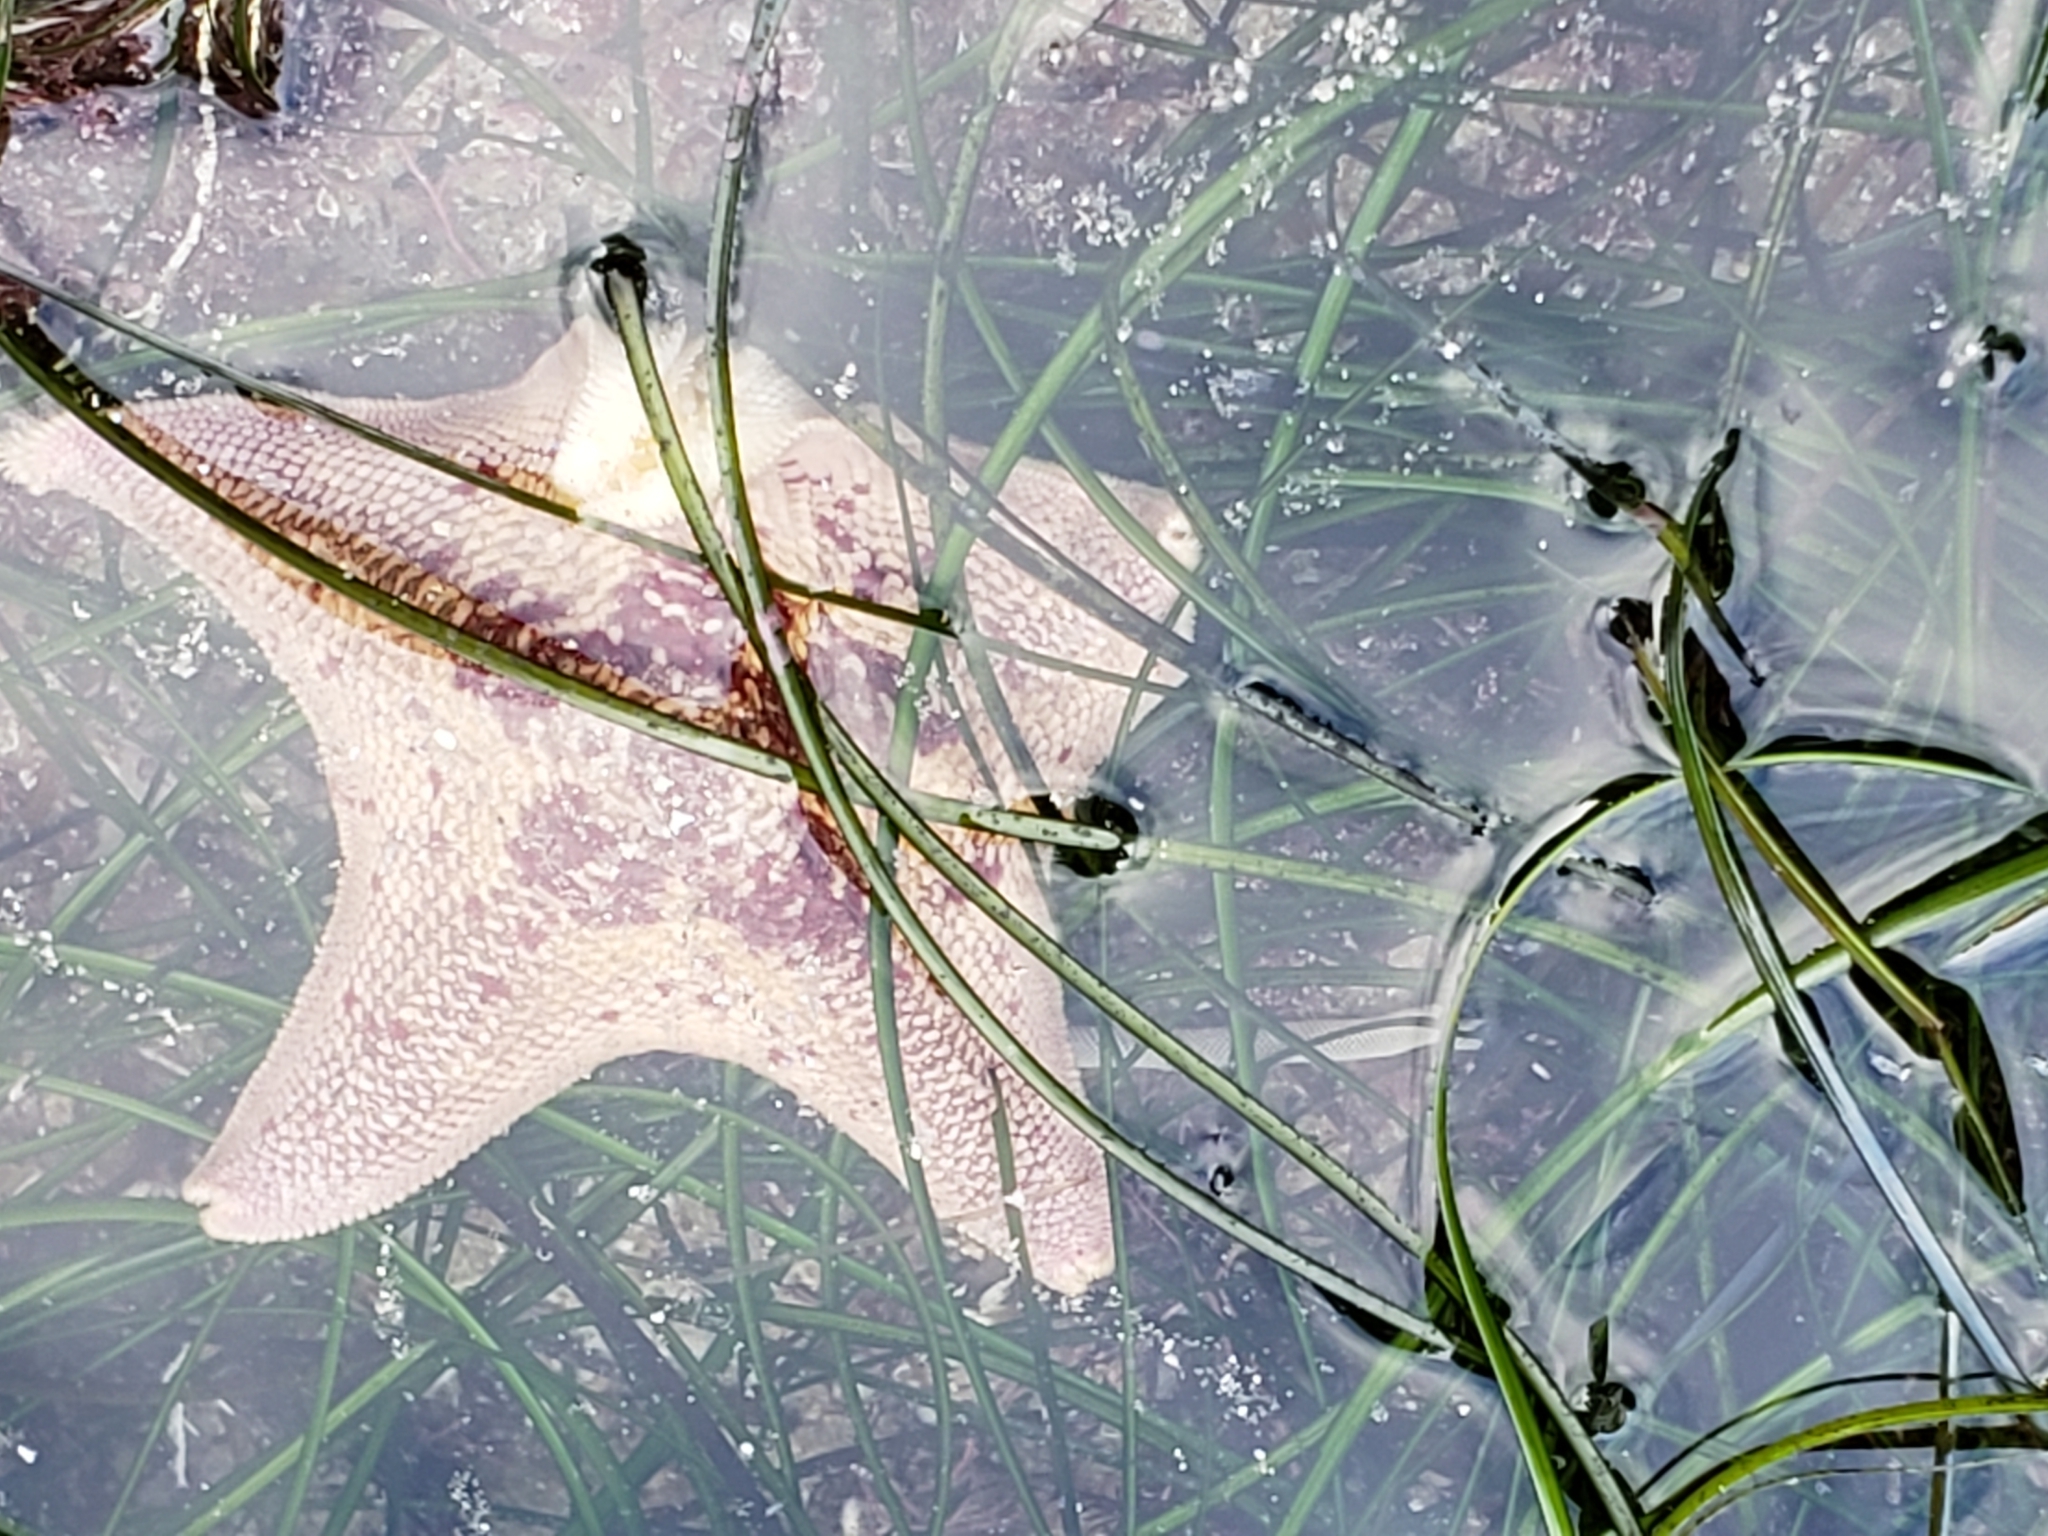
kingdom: Animalia
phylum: Echinodermata
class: Asteroidea
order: Valvatida
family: Asterinidae
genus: Patiria
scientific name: Patiria miniata
